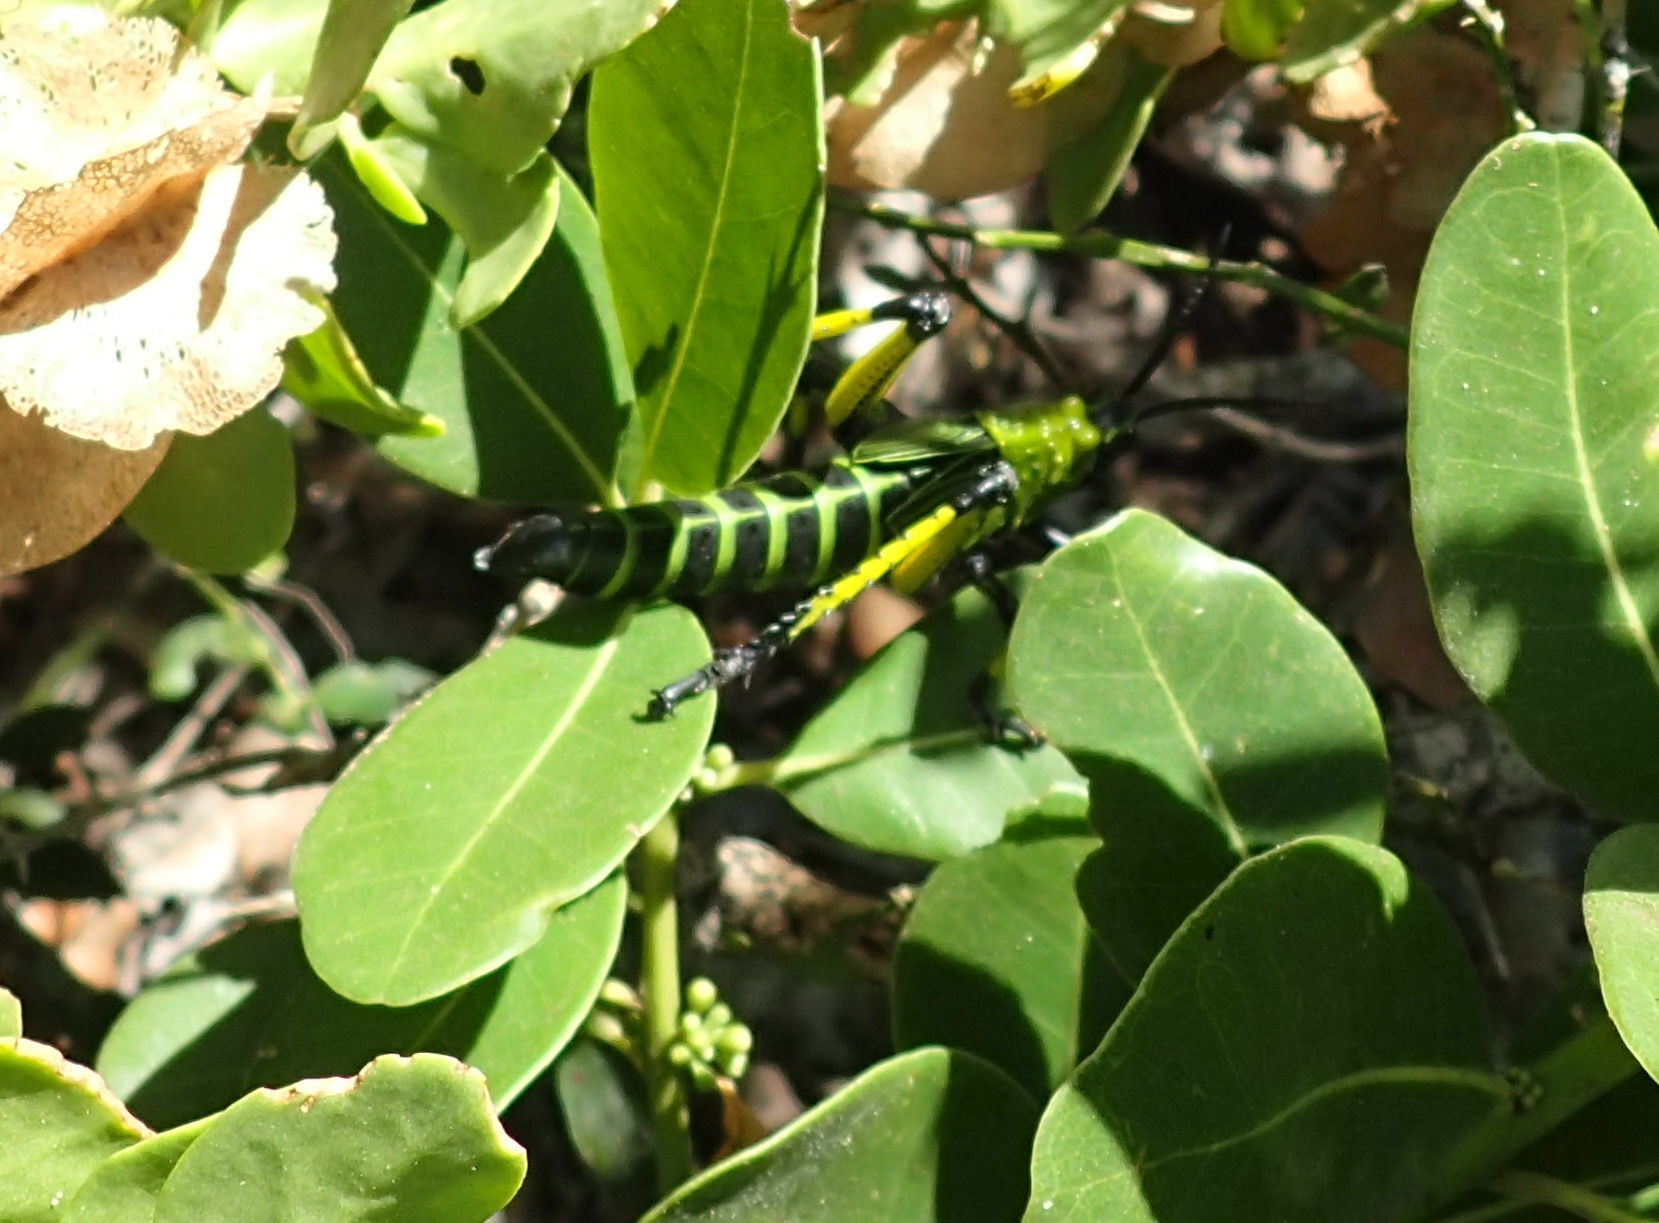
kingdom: Animalia
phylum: Arthropoda
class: Insecta
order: Orthoptera
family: Pyrgomorphidae
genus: Phymateus
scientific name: Phymateus leprosus
